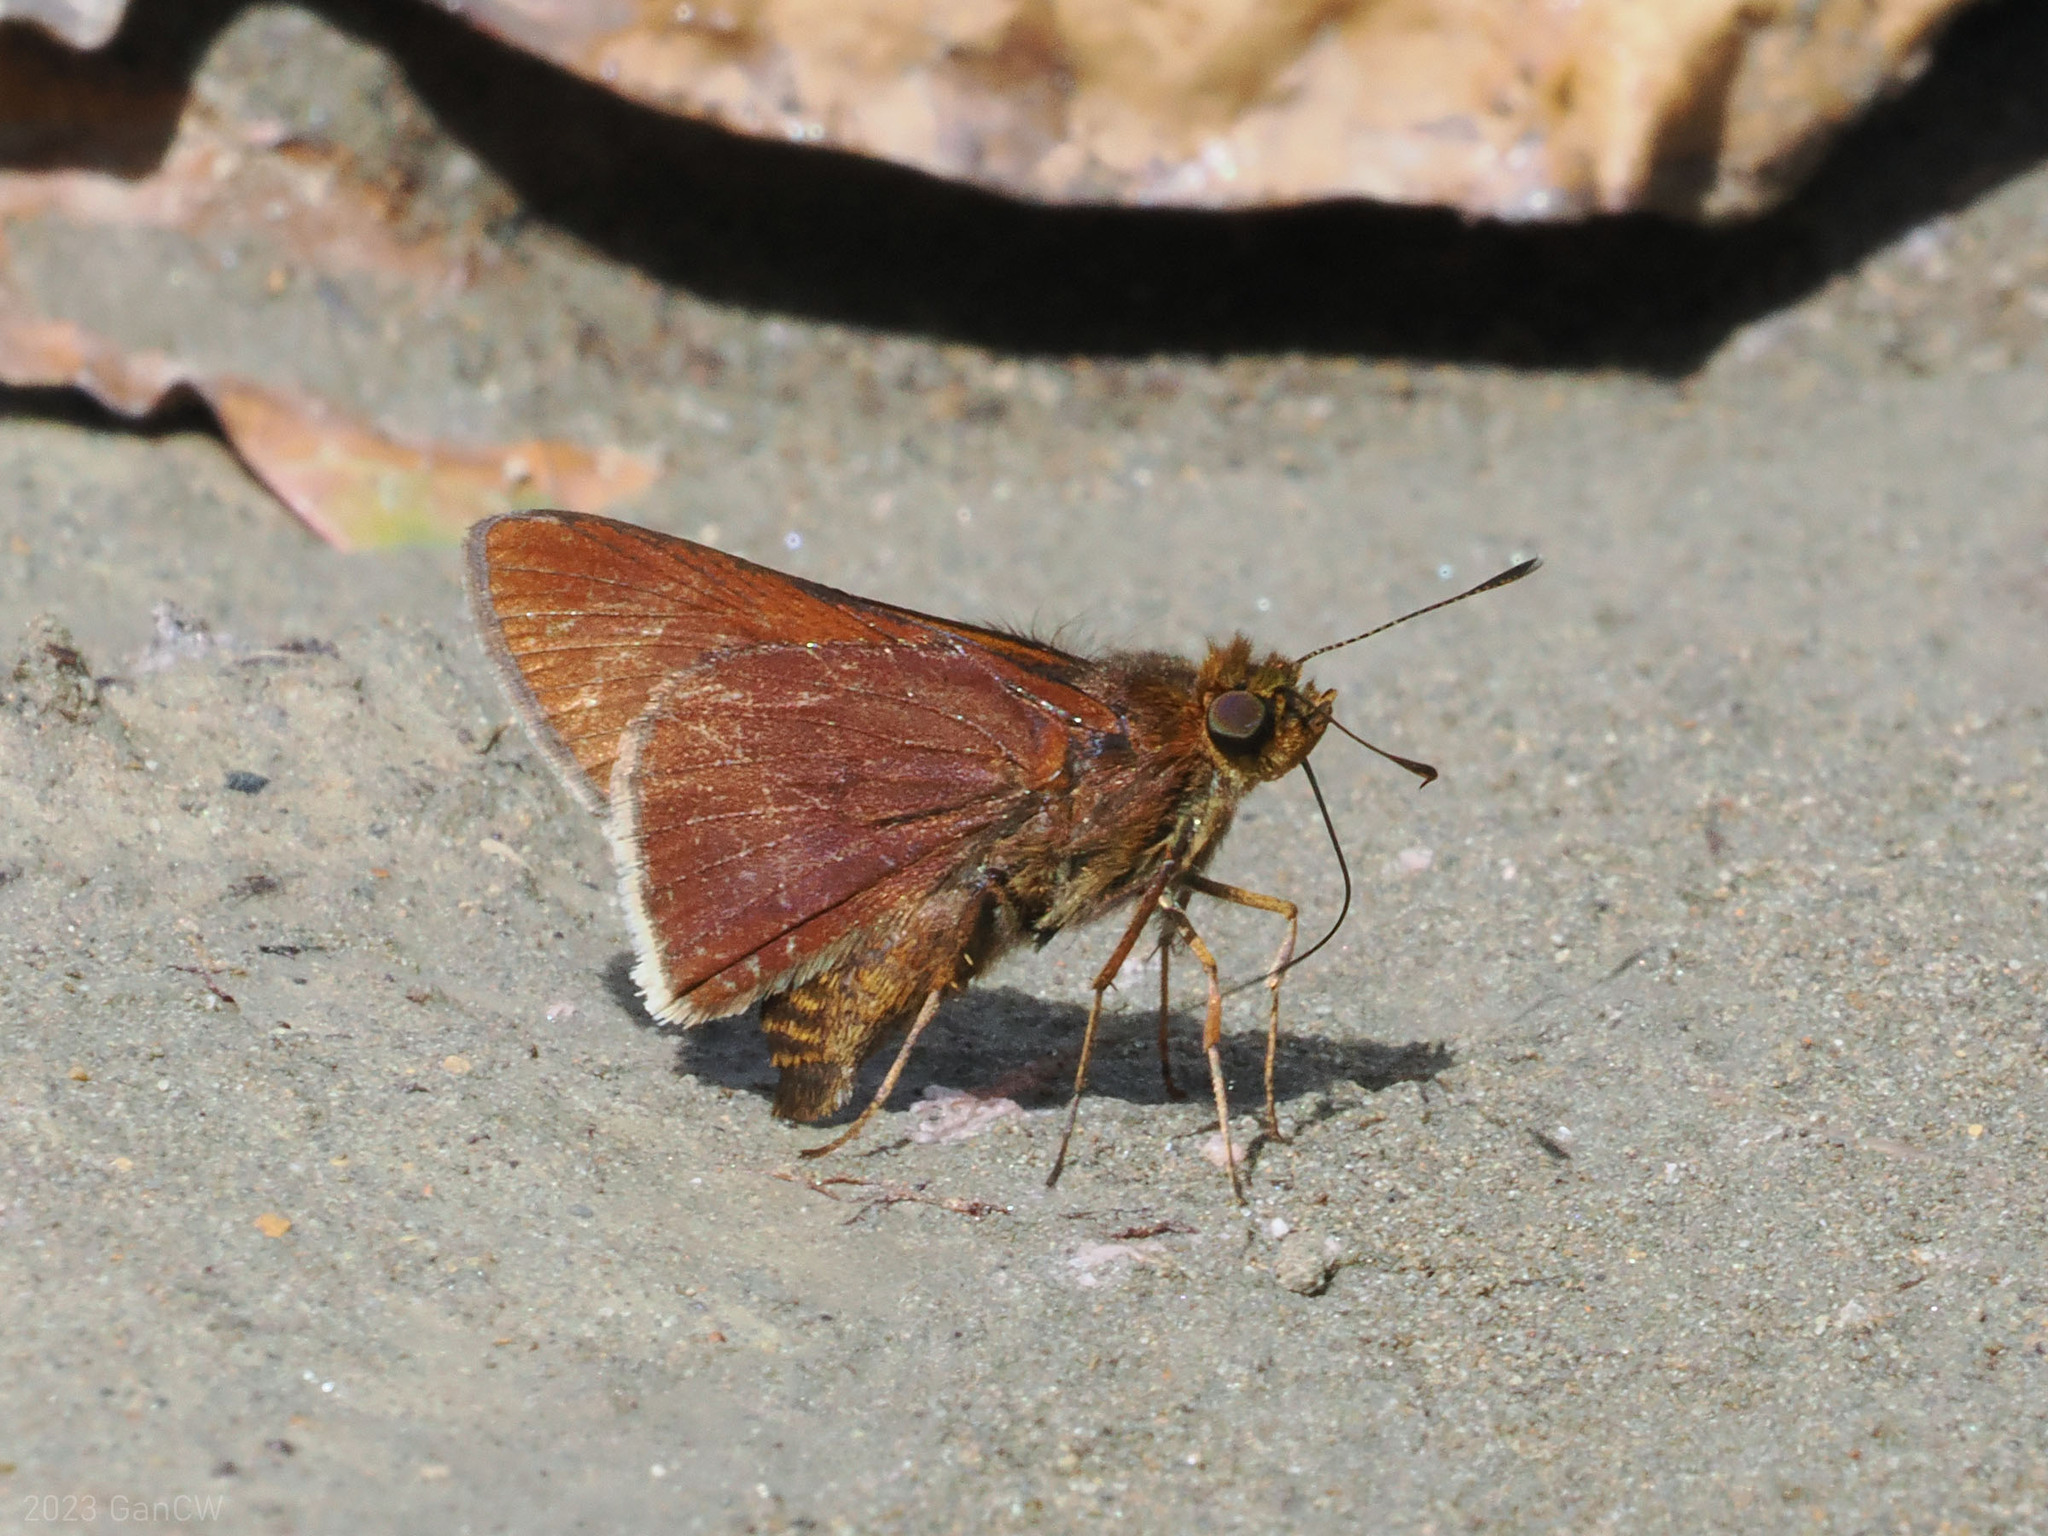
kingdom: Animalia
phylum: Arthropoda
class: Insecta
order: Lepidoptera
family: Hesperiidae
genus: Mimene
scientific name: Mimene
